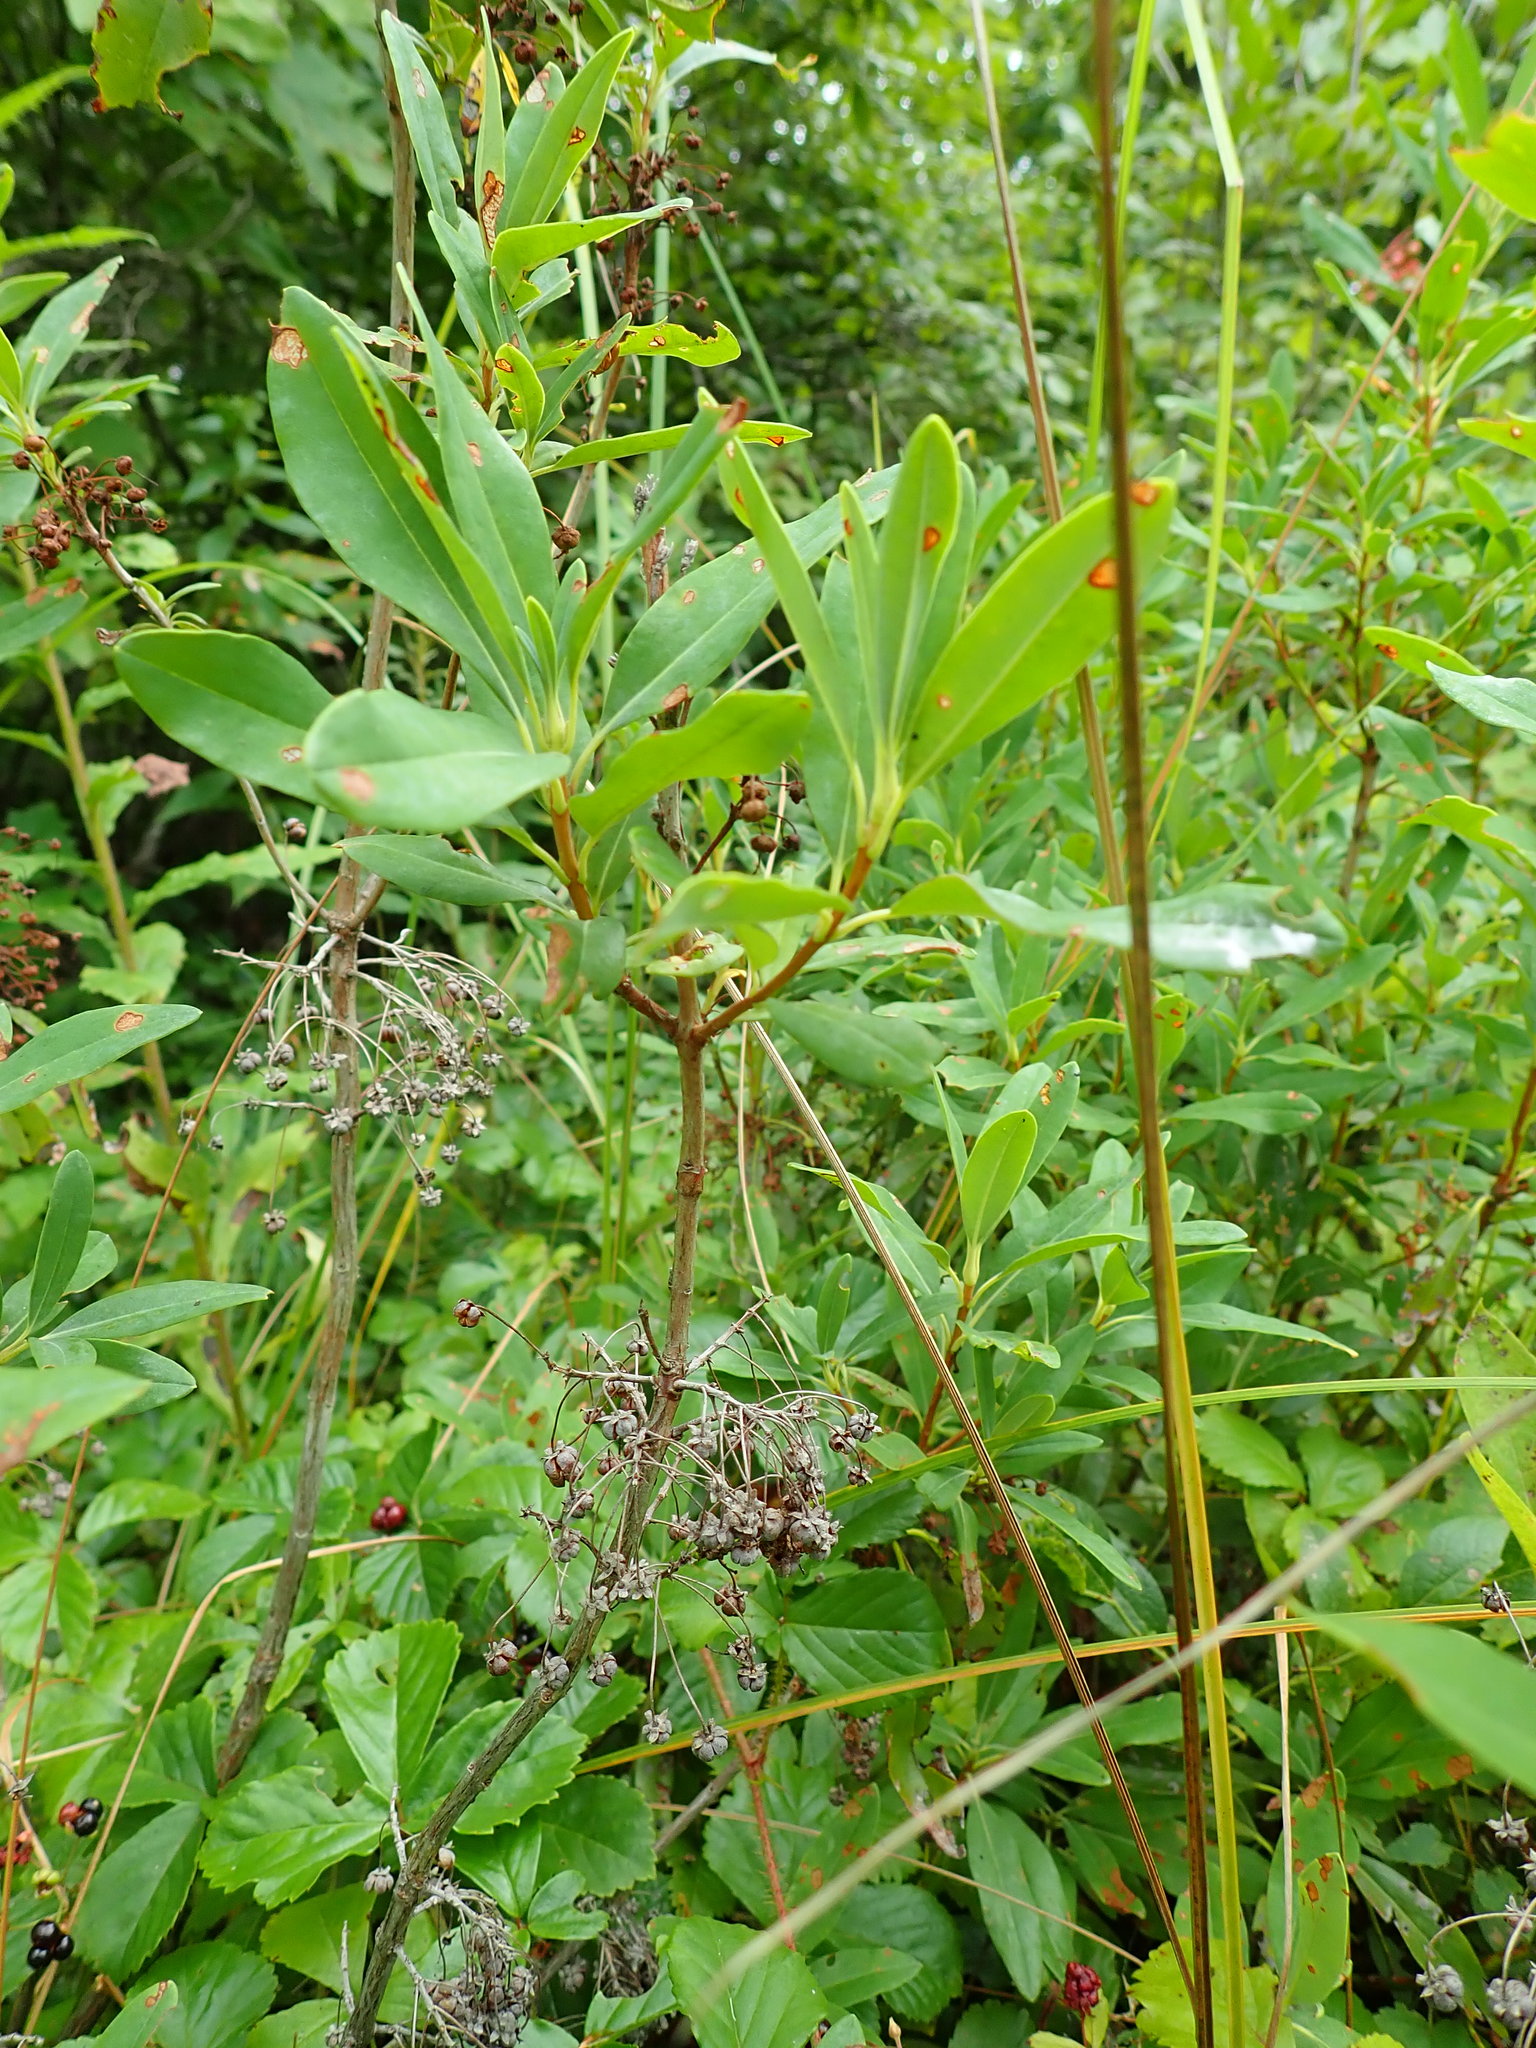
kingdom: Plantae
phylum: Tracheophyta
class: Magnoliopsida
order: Ericales
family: Ericaceae
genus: Kalmia
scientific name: Kalmia angustifolia
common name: Sheep-laurel
